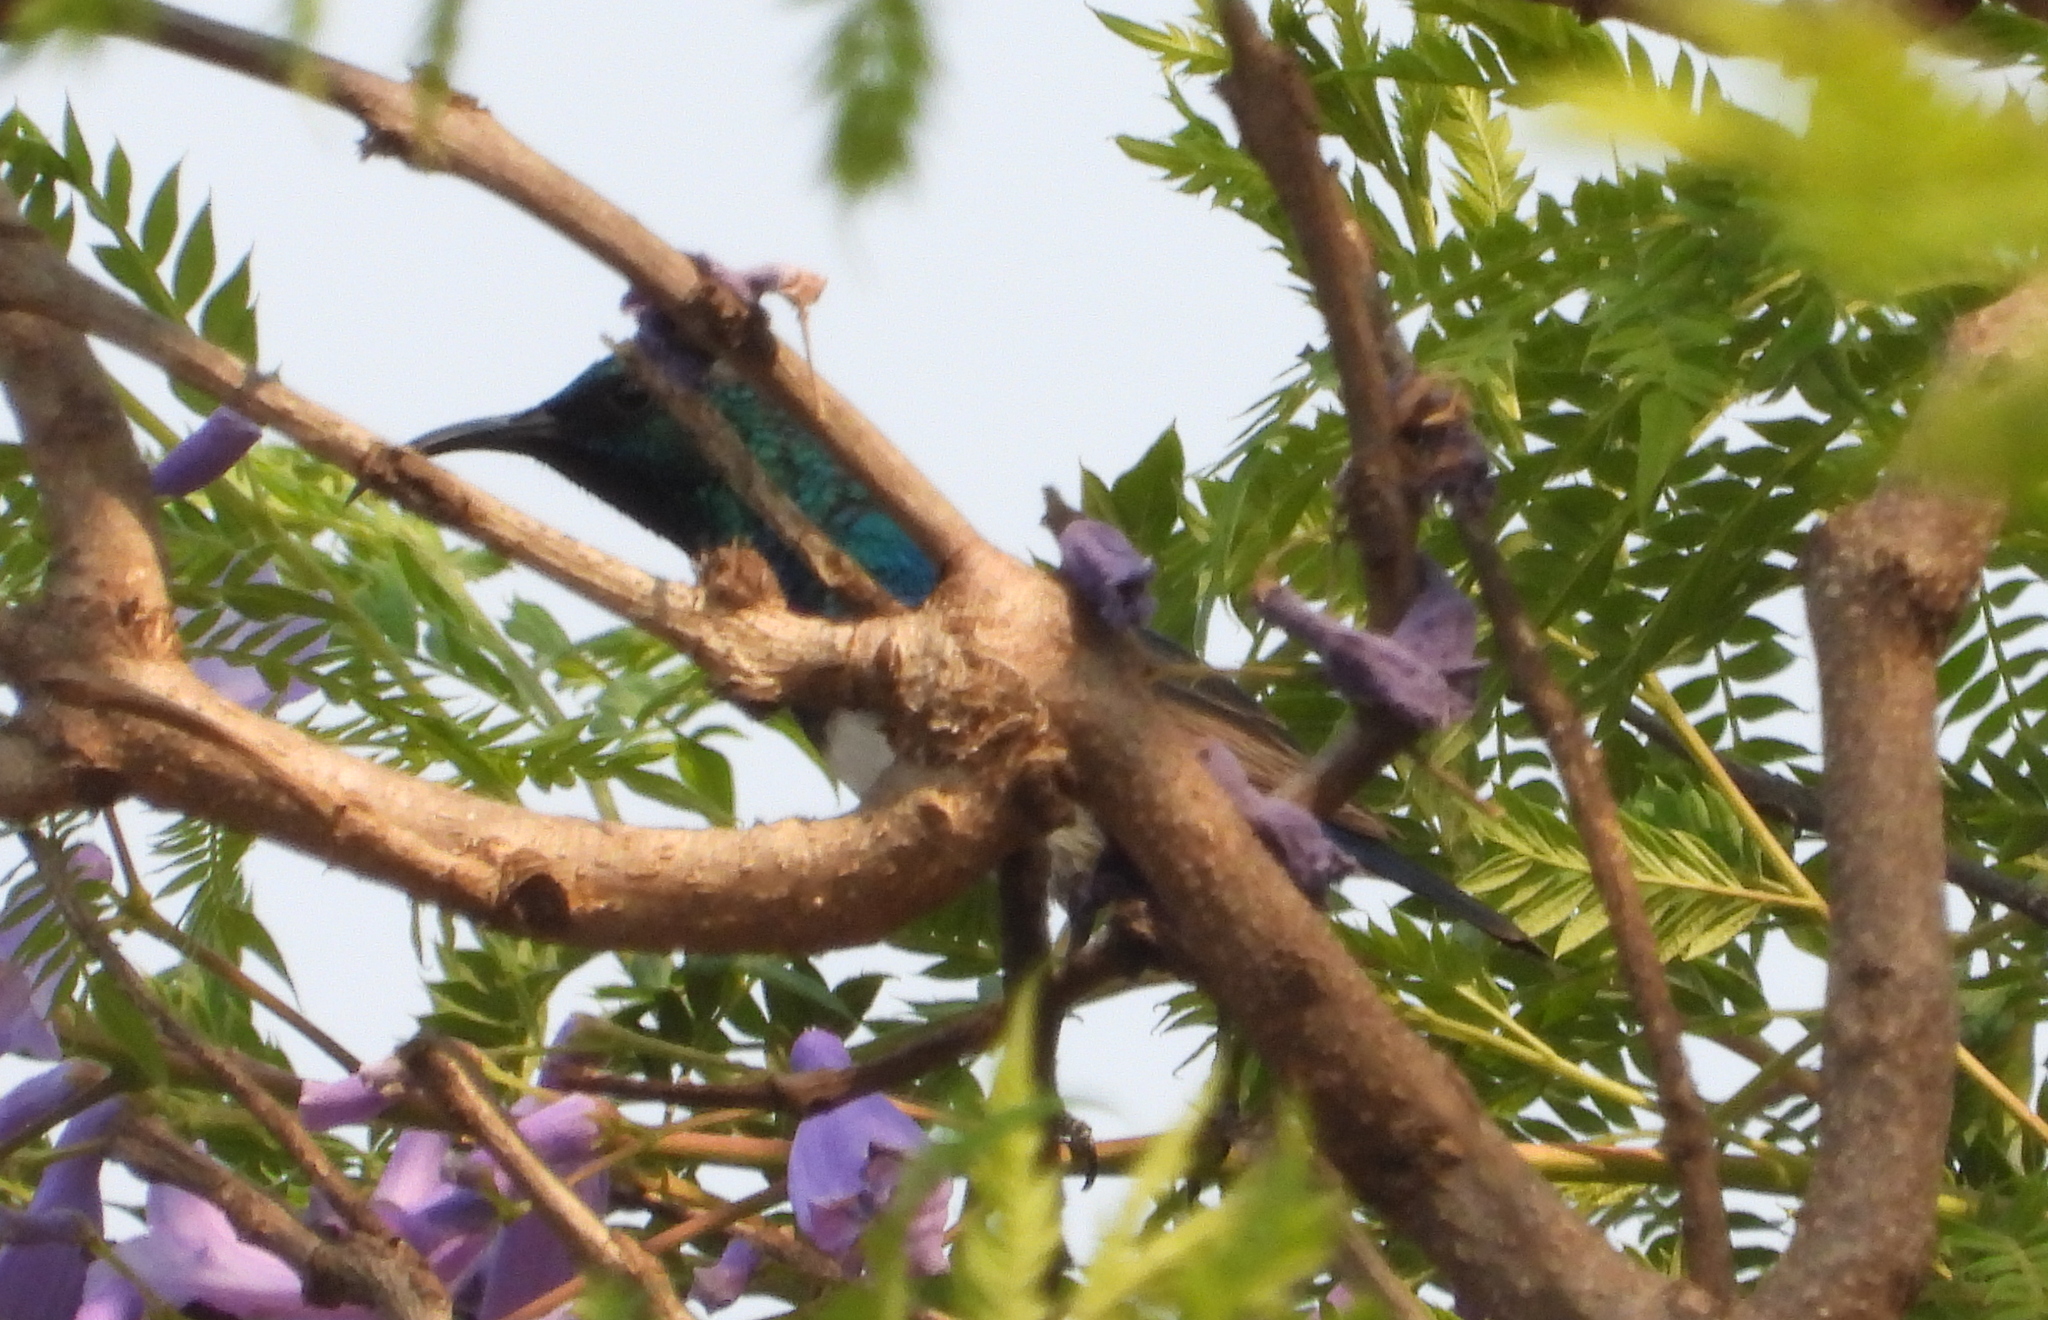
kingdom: Animalia
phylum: Chordata
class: Aves
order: Passeriformes
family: Nectariniidae
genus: Cinnyris
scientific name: Cinnyris talatala
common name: White-bellied sunbird
